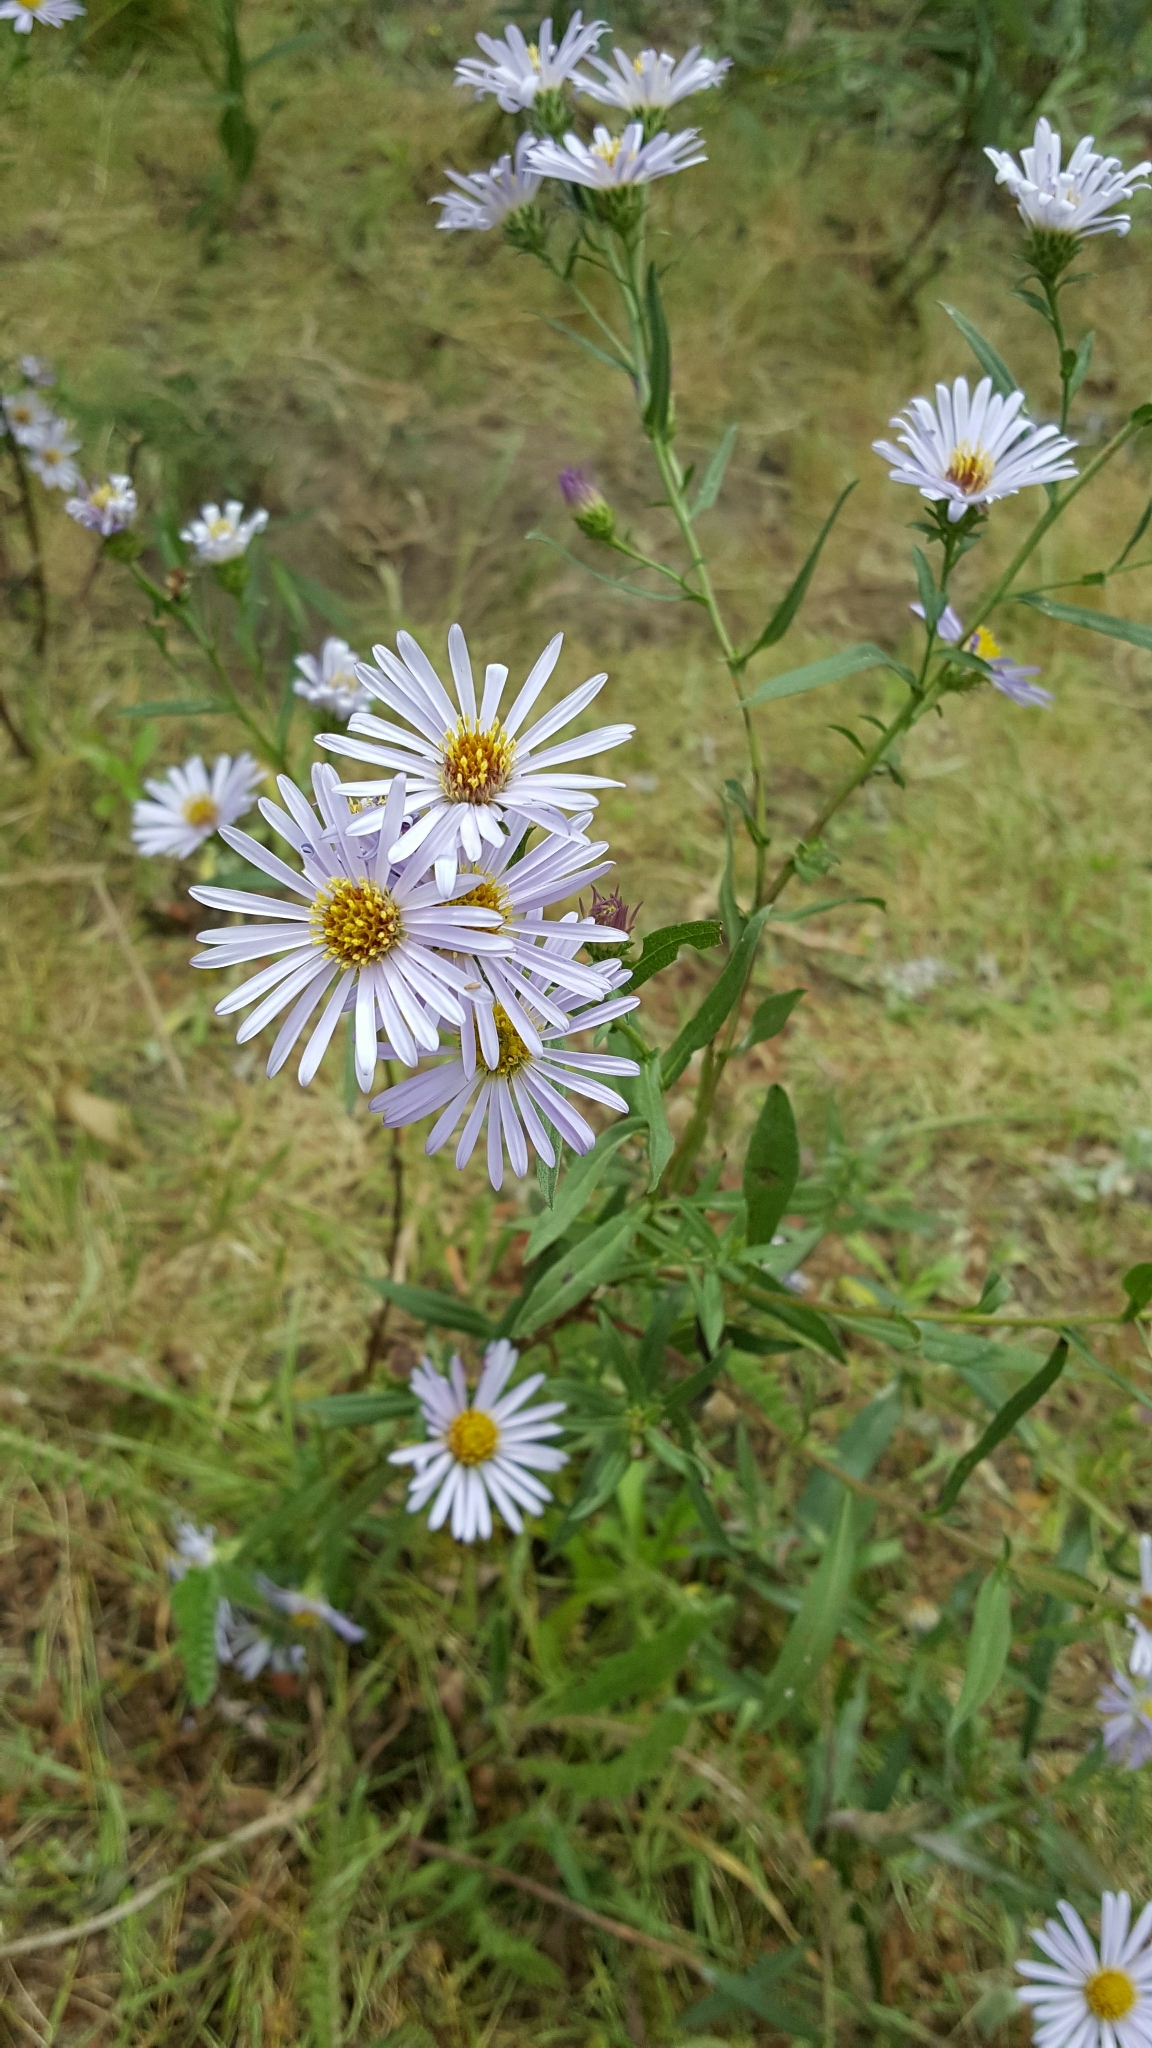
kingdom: Plantae
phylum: Tracheophyta
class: Magnoliopsida
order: Asterales
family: Asteraceae
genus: Symphyotrichum
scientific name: Symphyotrichum chilense
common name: Pacific aster
